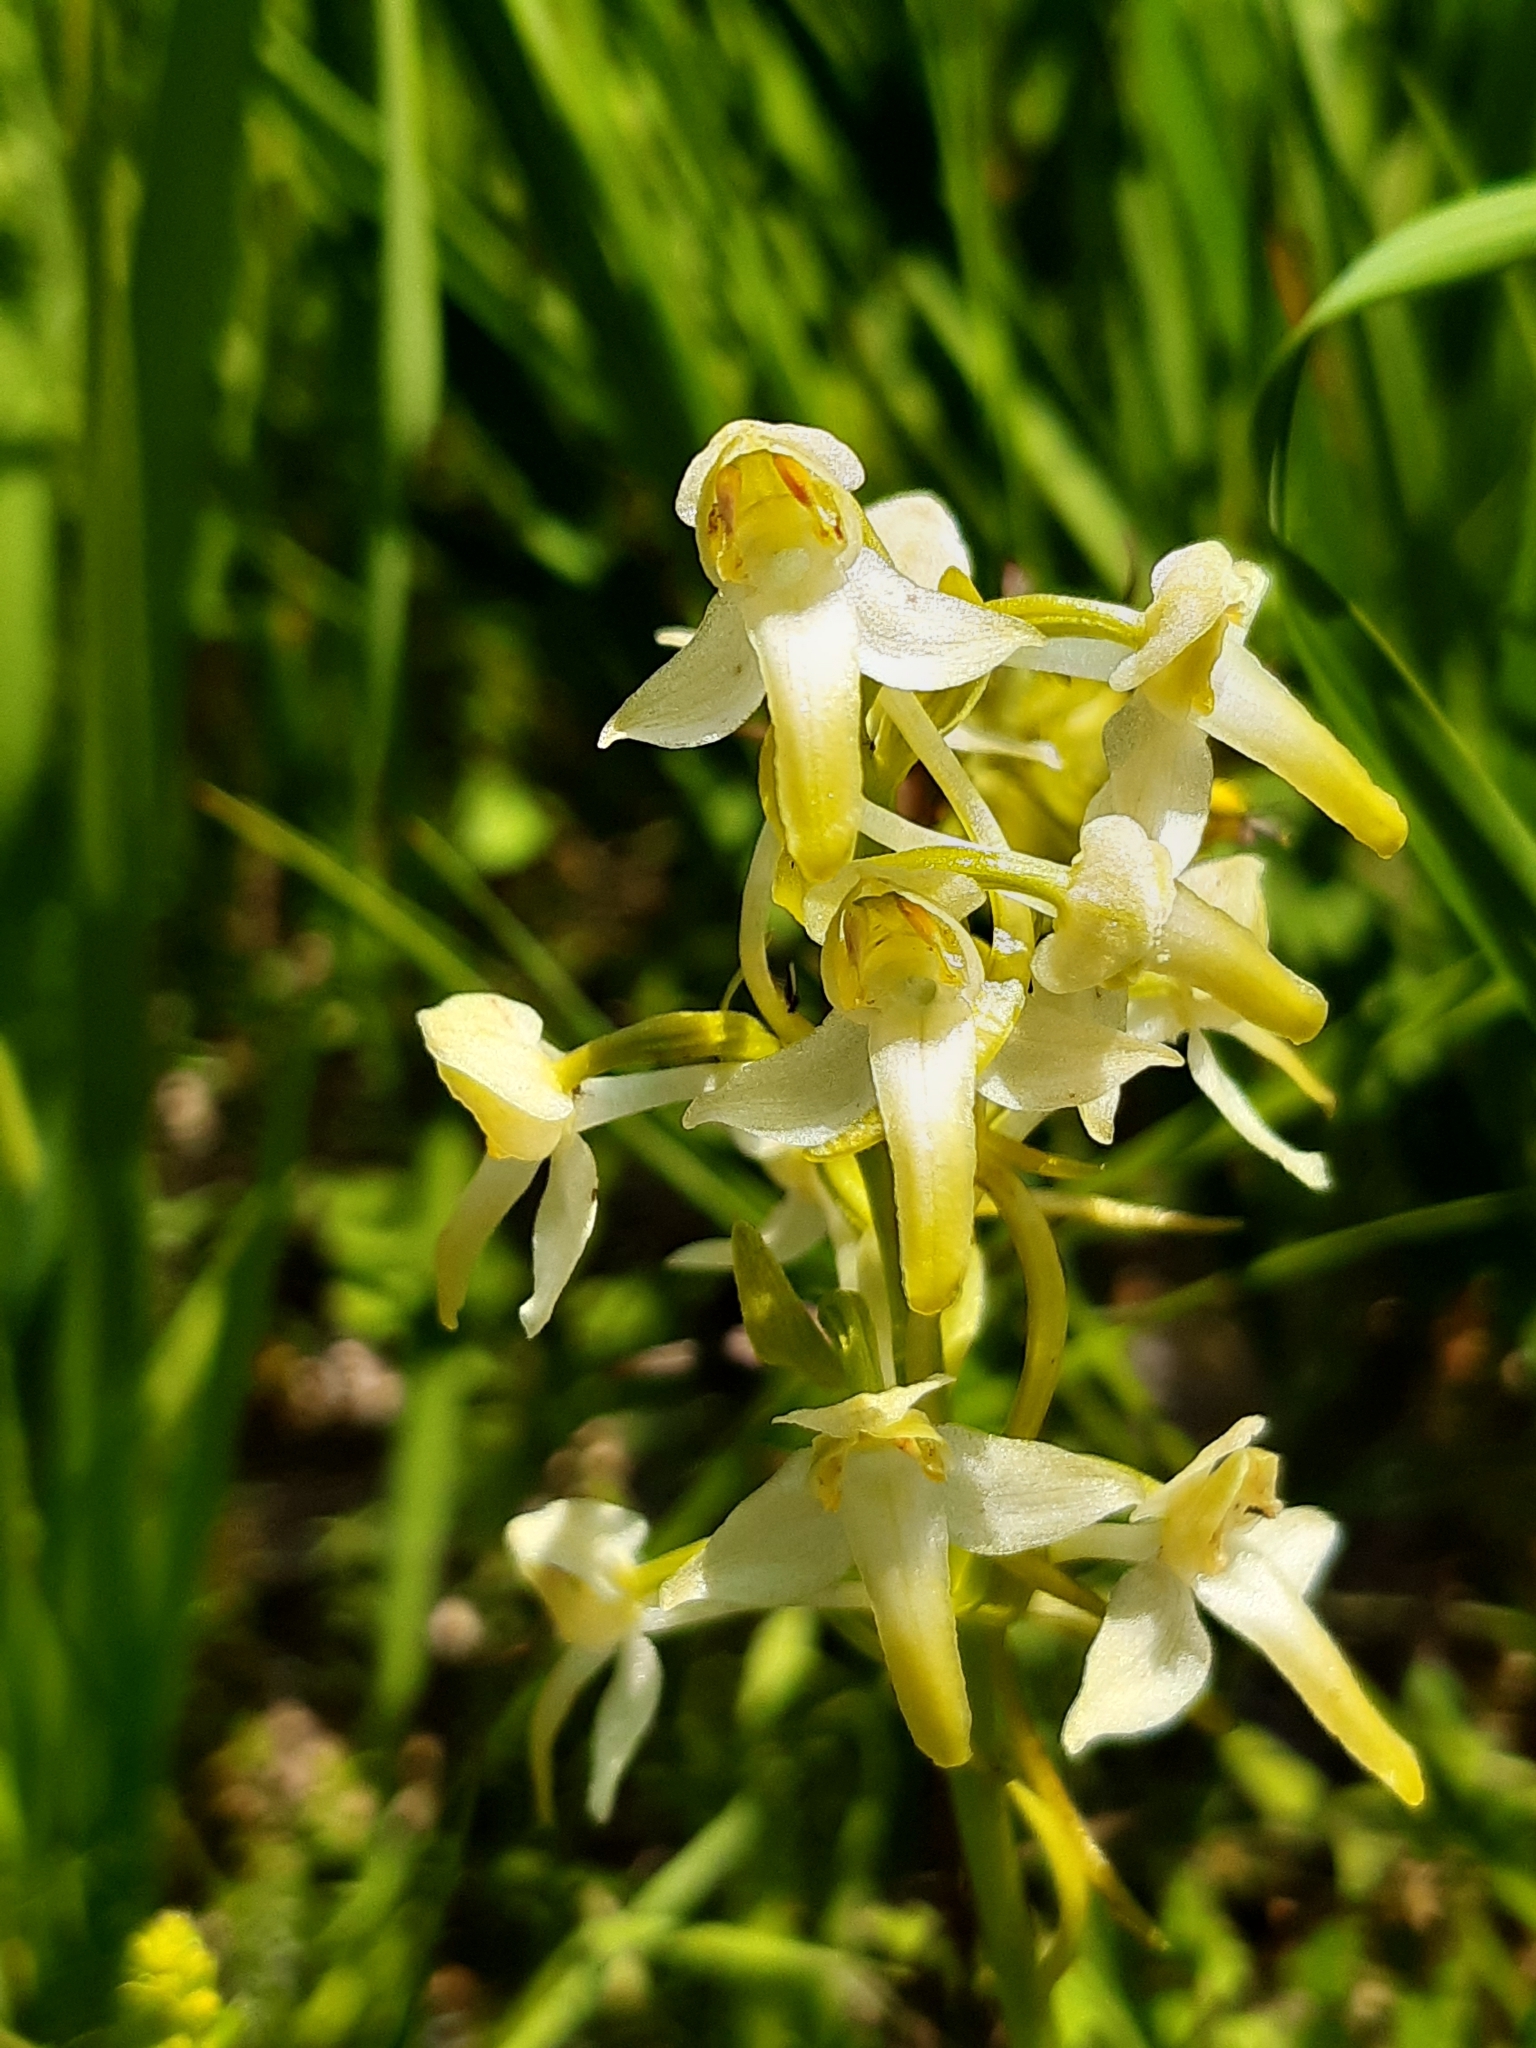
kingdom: Plantae
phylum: Tracheophyta
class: Liliopsida
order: Asparagales
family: Orchidaceae
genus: Platanthera
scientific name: Platanthera chlorantha
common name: Greater butterfly-orchid
